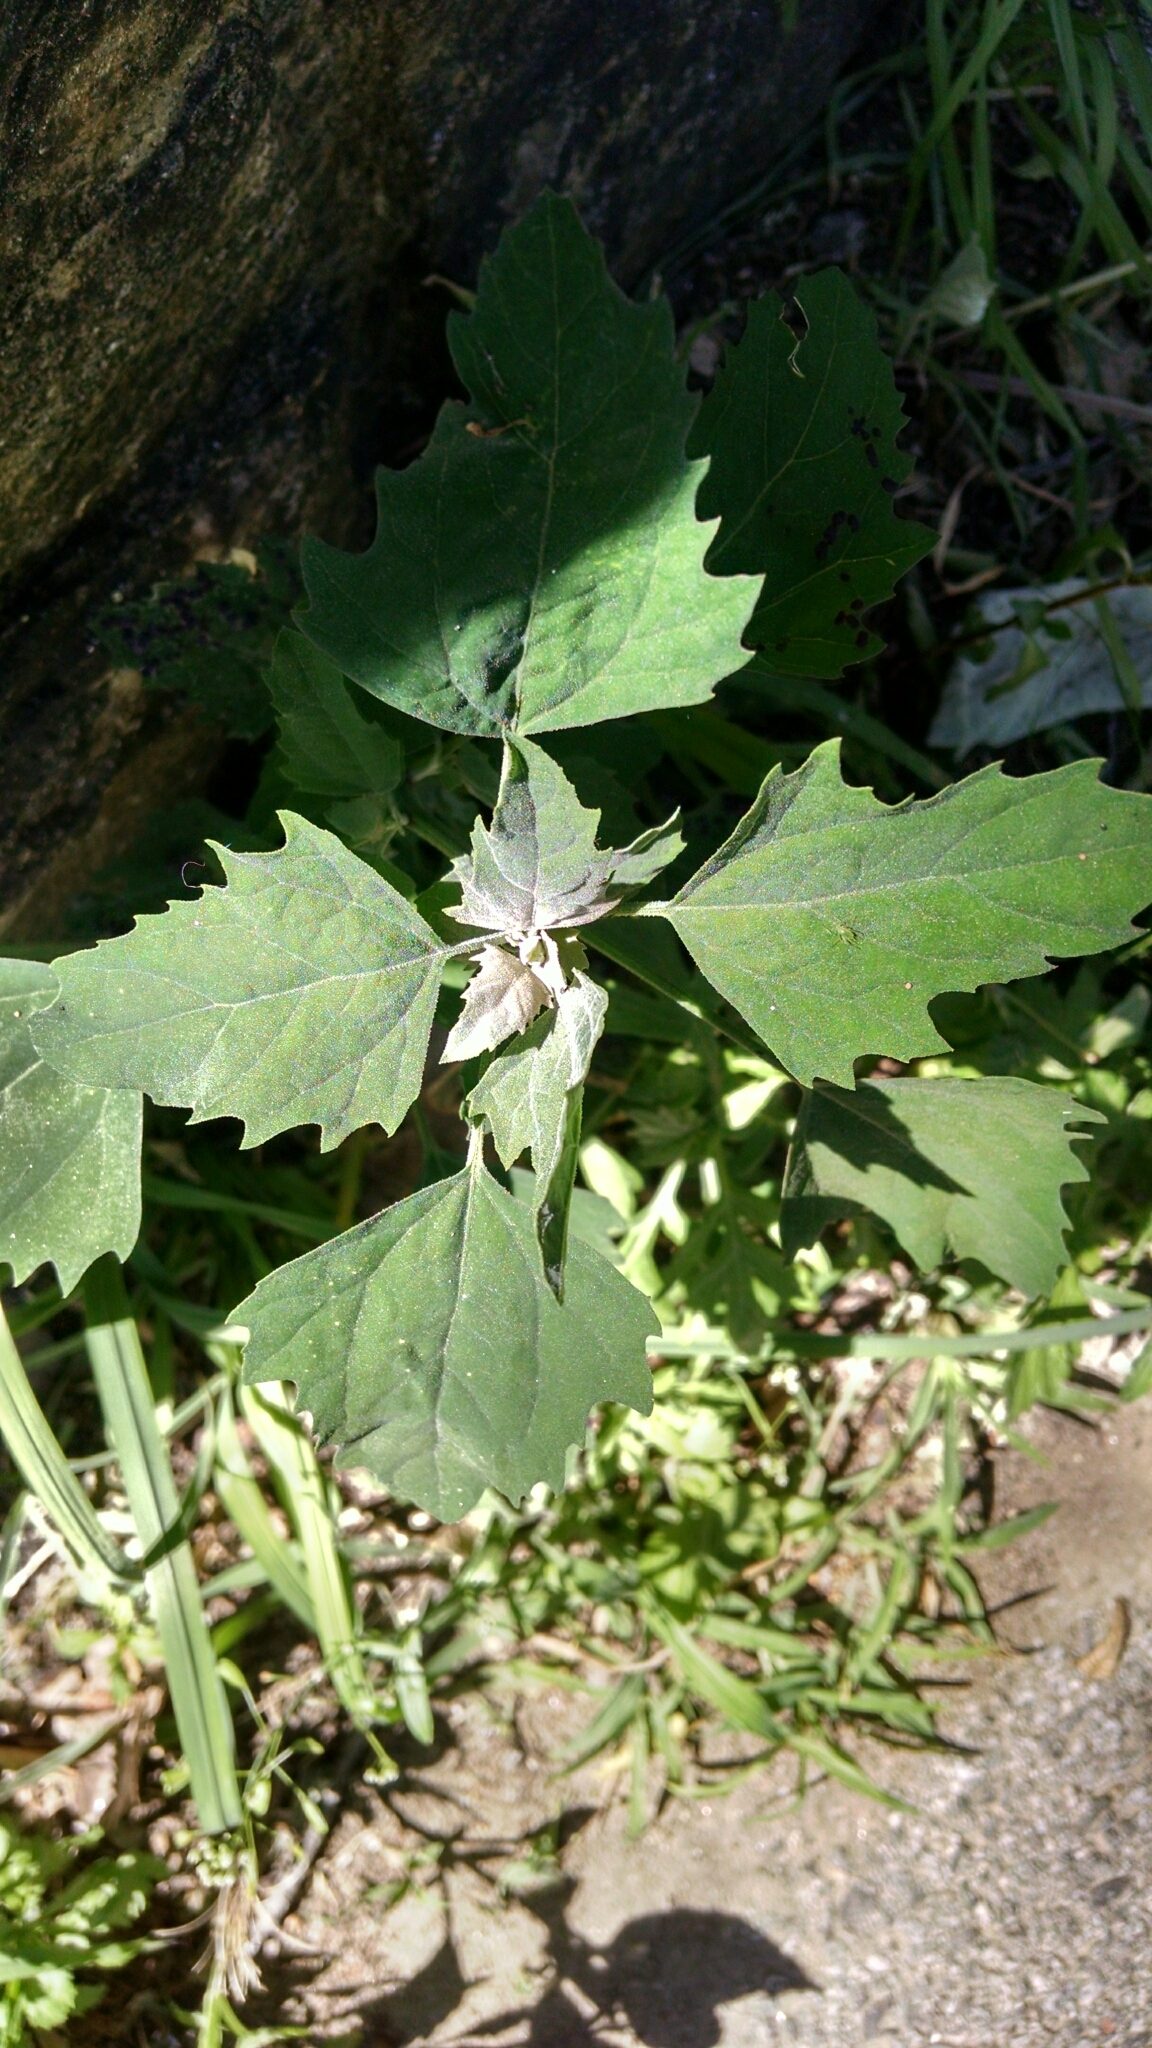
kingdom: Plantae
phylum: Tracheophyta
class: Magnoliopsida
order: Caryophyllales
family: Amaranthaceae
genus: Chenopodium
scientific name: Chenopodium album
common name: Fat-hen
